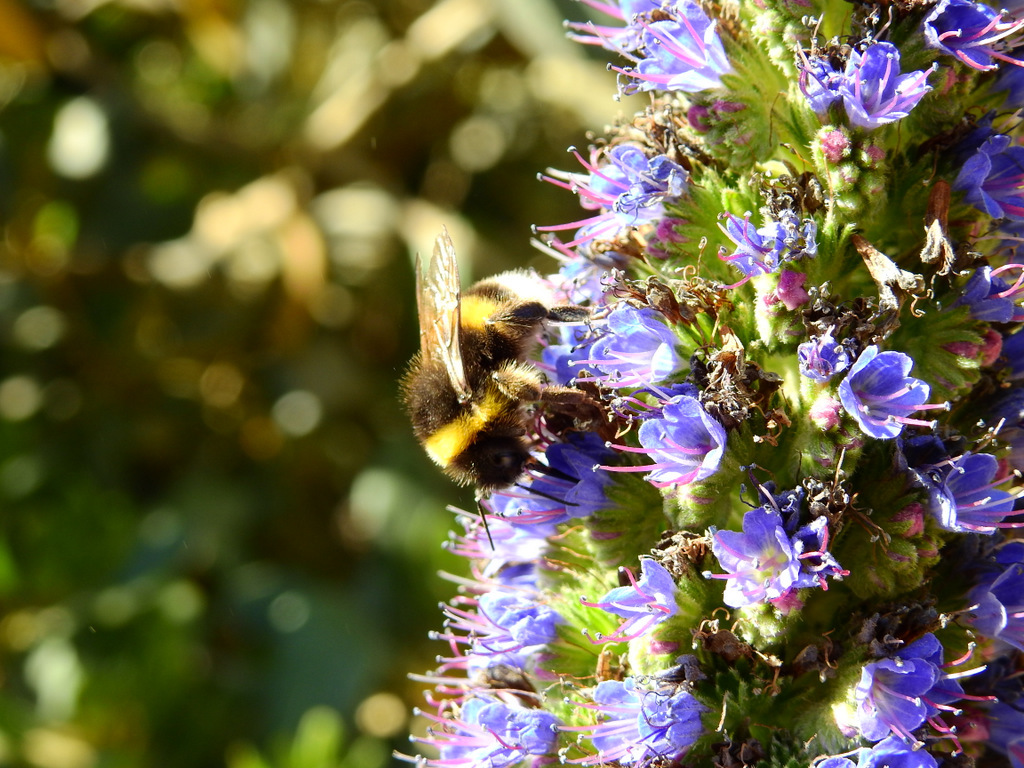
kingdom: Animalia
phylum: Arthropoda
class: Insecta
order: Hymenoptera
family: Apidae
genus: Bombus
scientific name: Bombus terrestris
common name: Buff-tailed bumblebee
